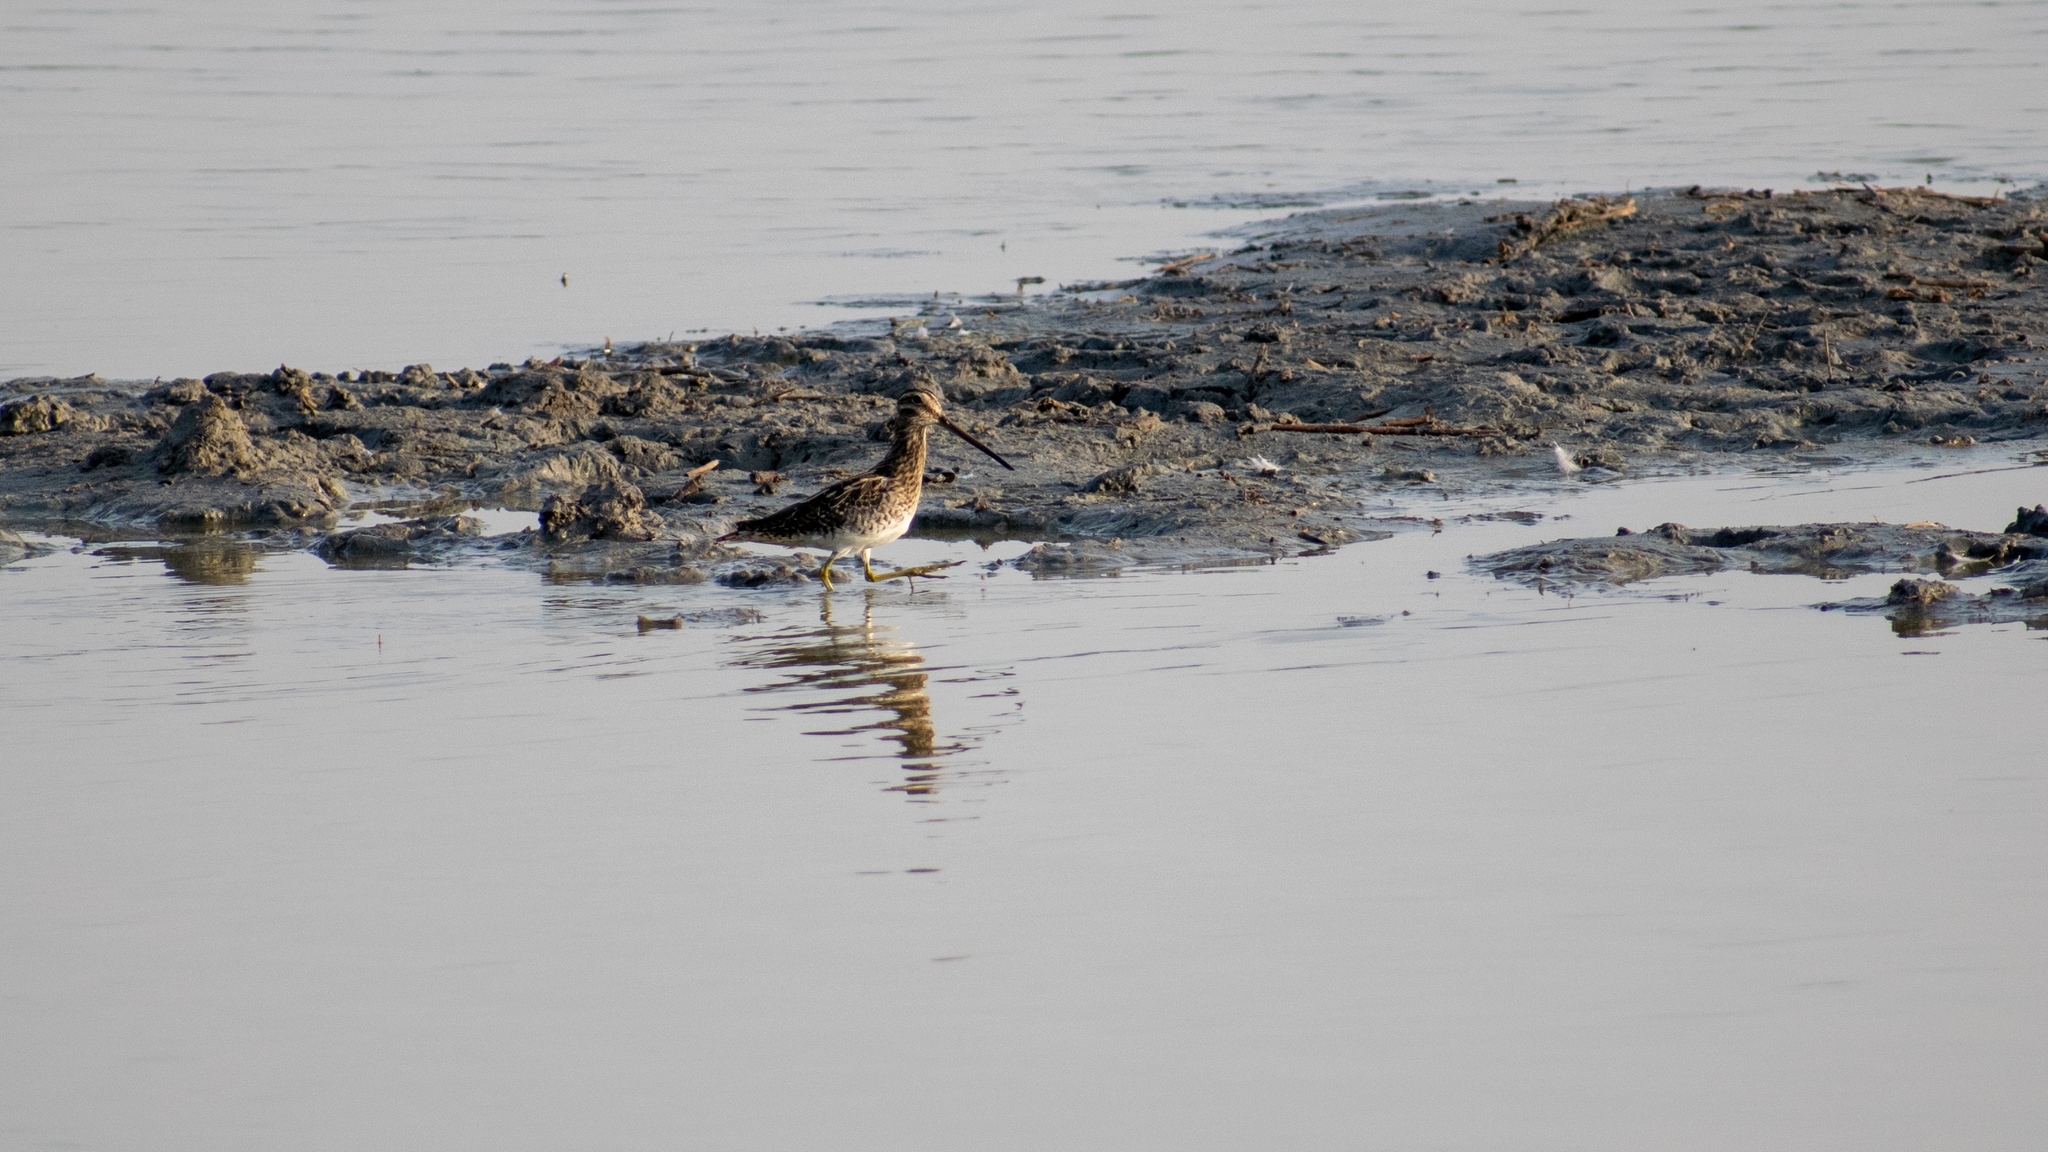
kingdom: Animalia
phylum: Chordata
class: Aves
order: Charadriiformes
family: Scolopacidae
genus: Gallinago
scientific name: Gallinago gallinago
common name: Common snipe
